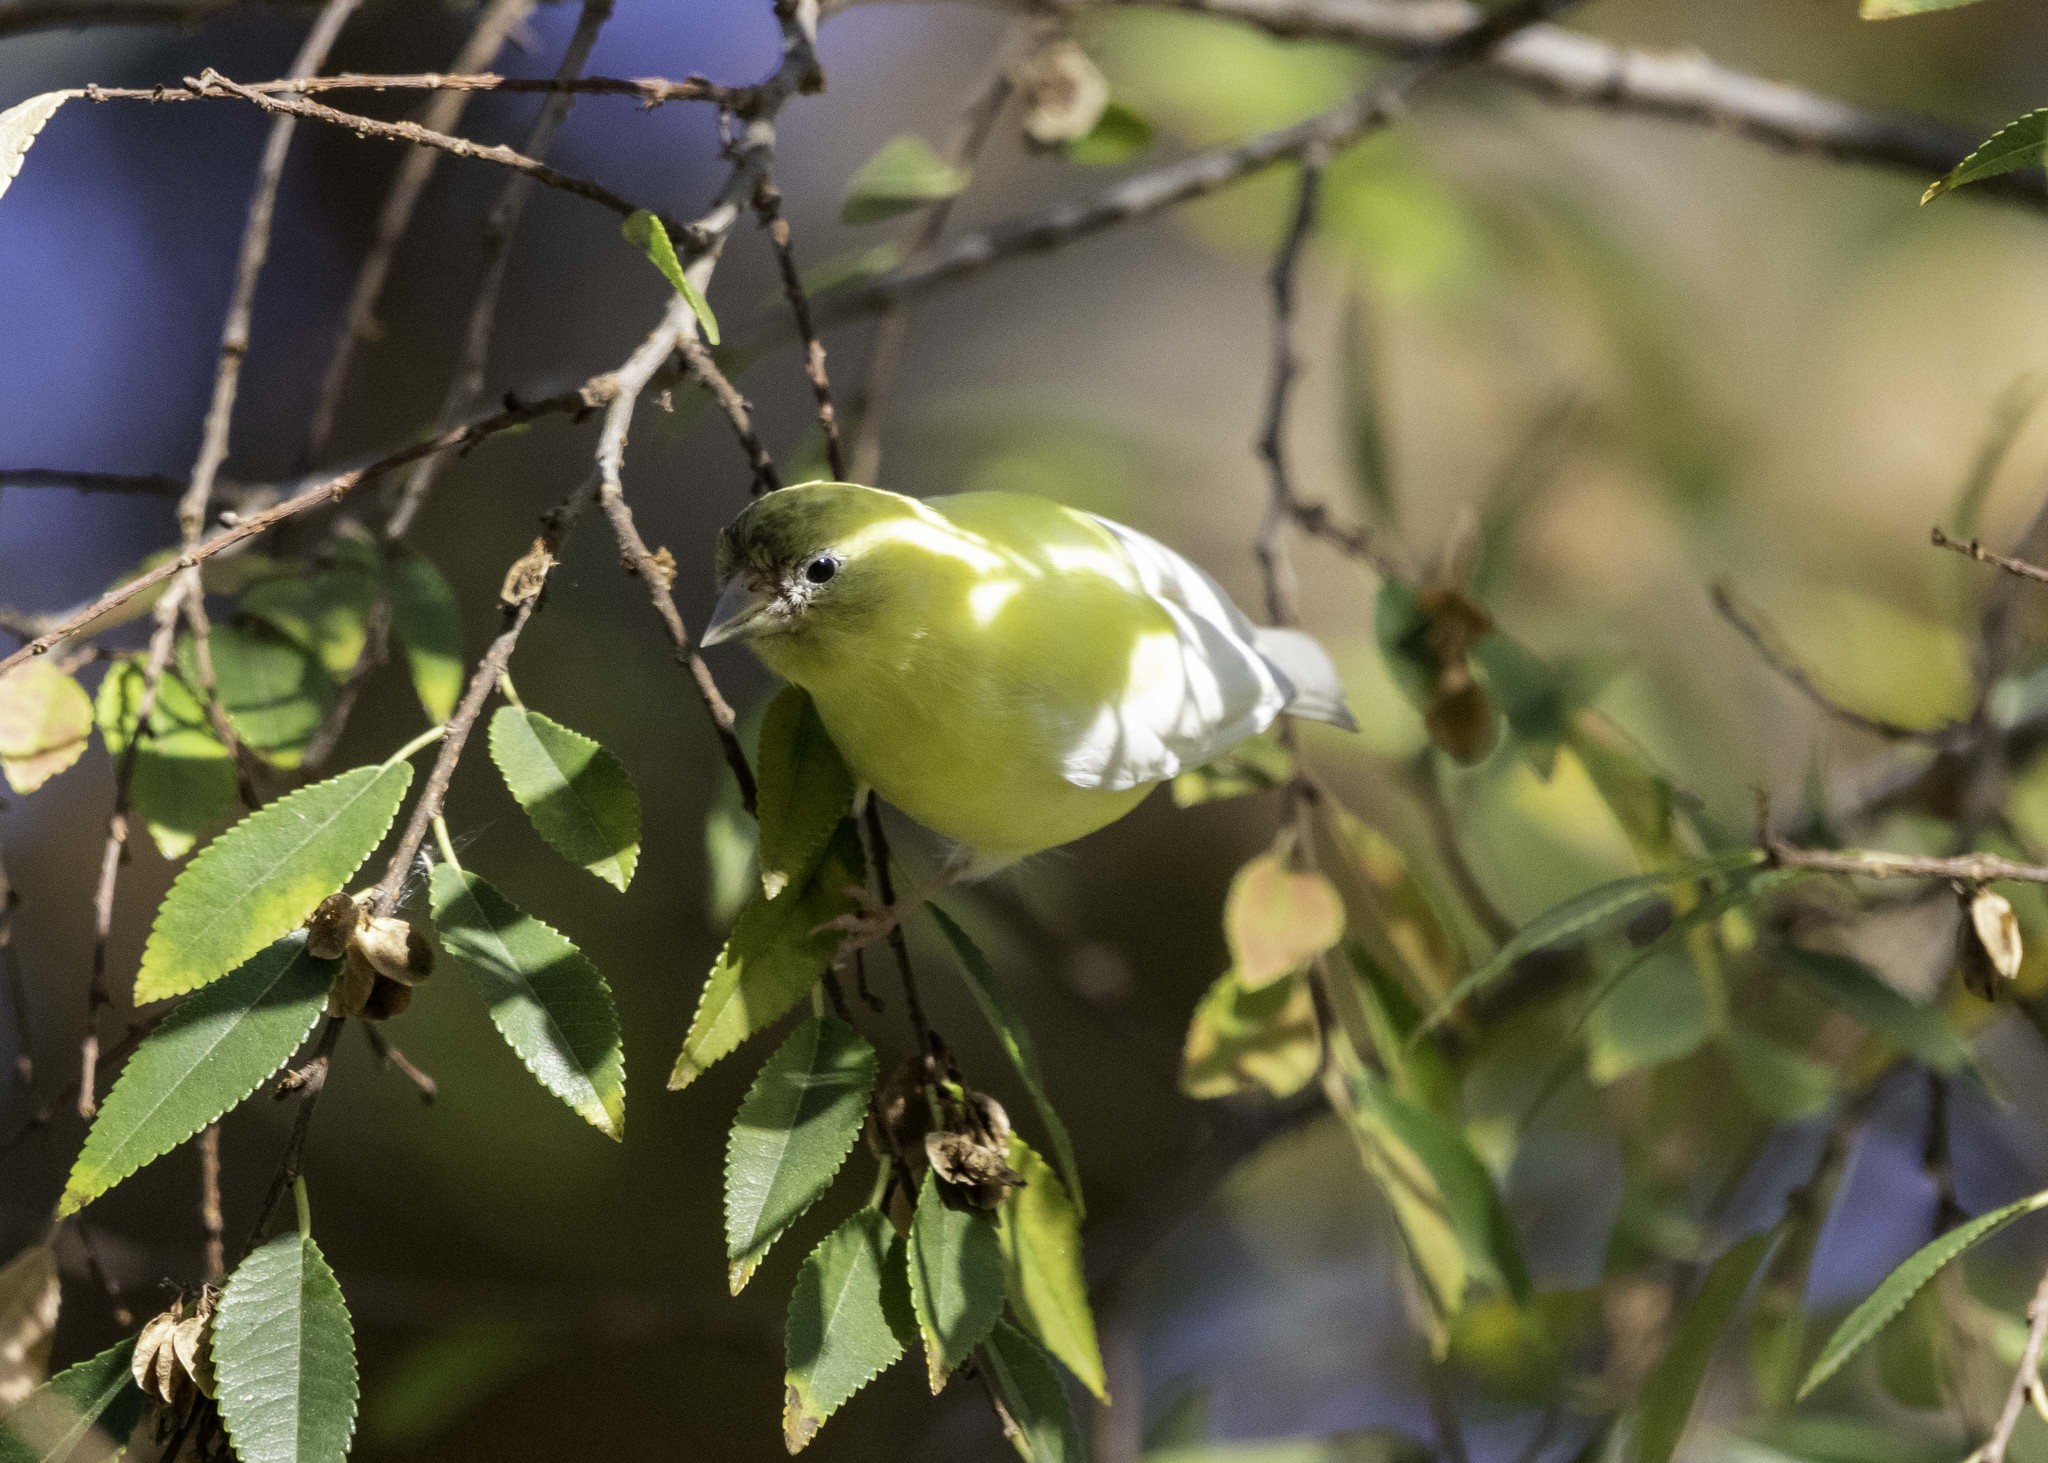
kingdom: Animalia
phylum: Chordata
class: Aves
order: Passeriformes
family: Fringillidae
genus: Spinus
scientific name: Spinus psaltria
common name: Lesser goldfinch
